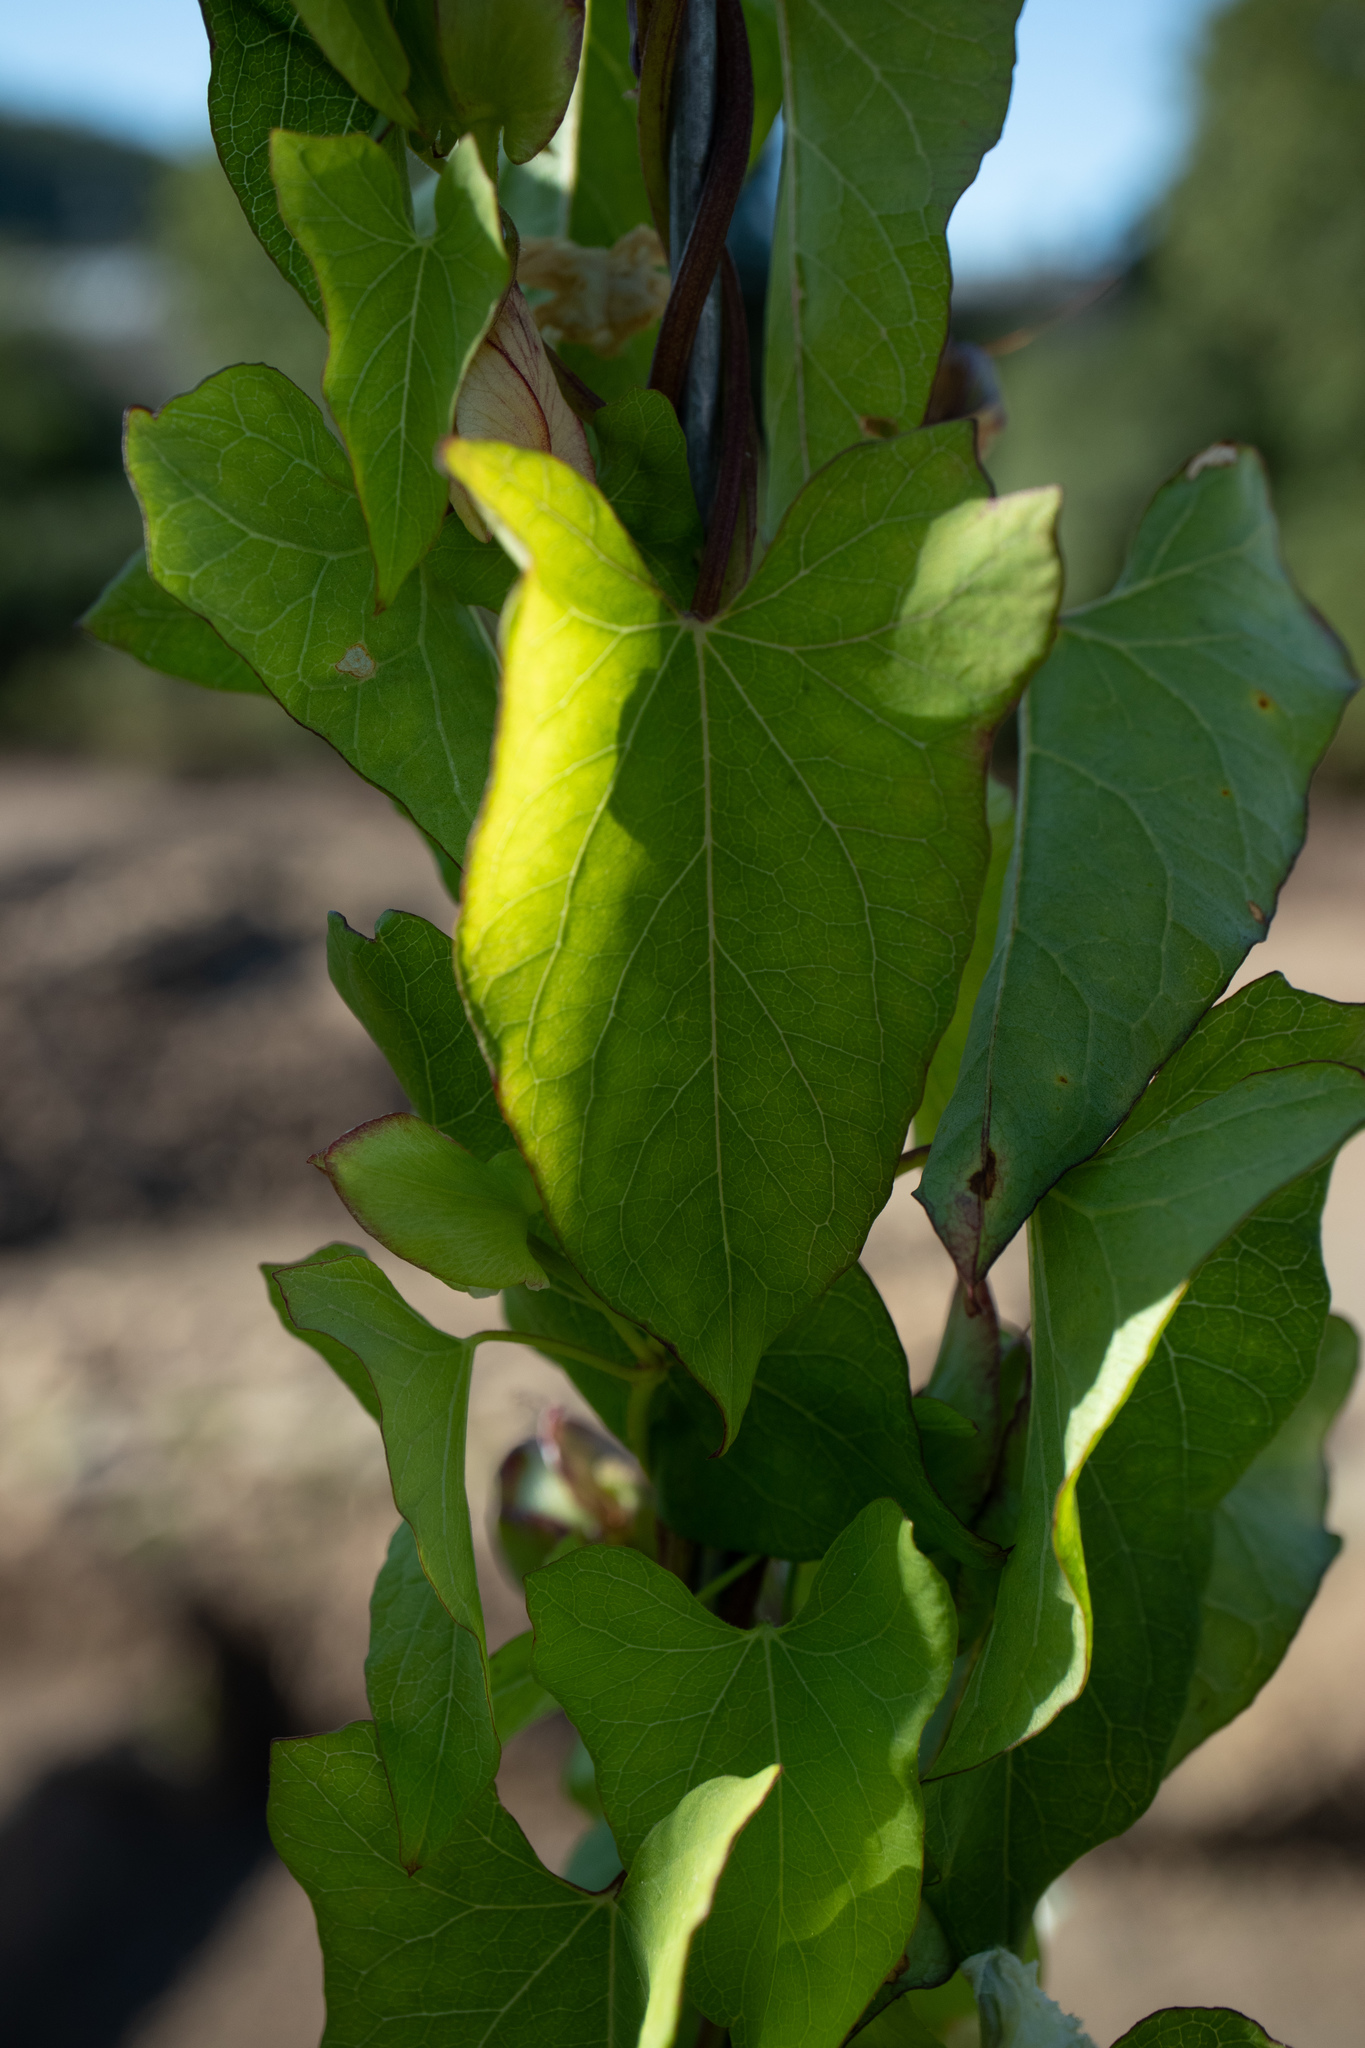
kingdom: Plantae
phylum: Tracheophyta
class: Magnoliopsida
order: Solanales
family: Convolvulaceae
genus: Calystegia
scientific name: Calystegia sepium
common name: Hedge bindweed
